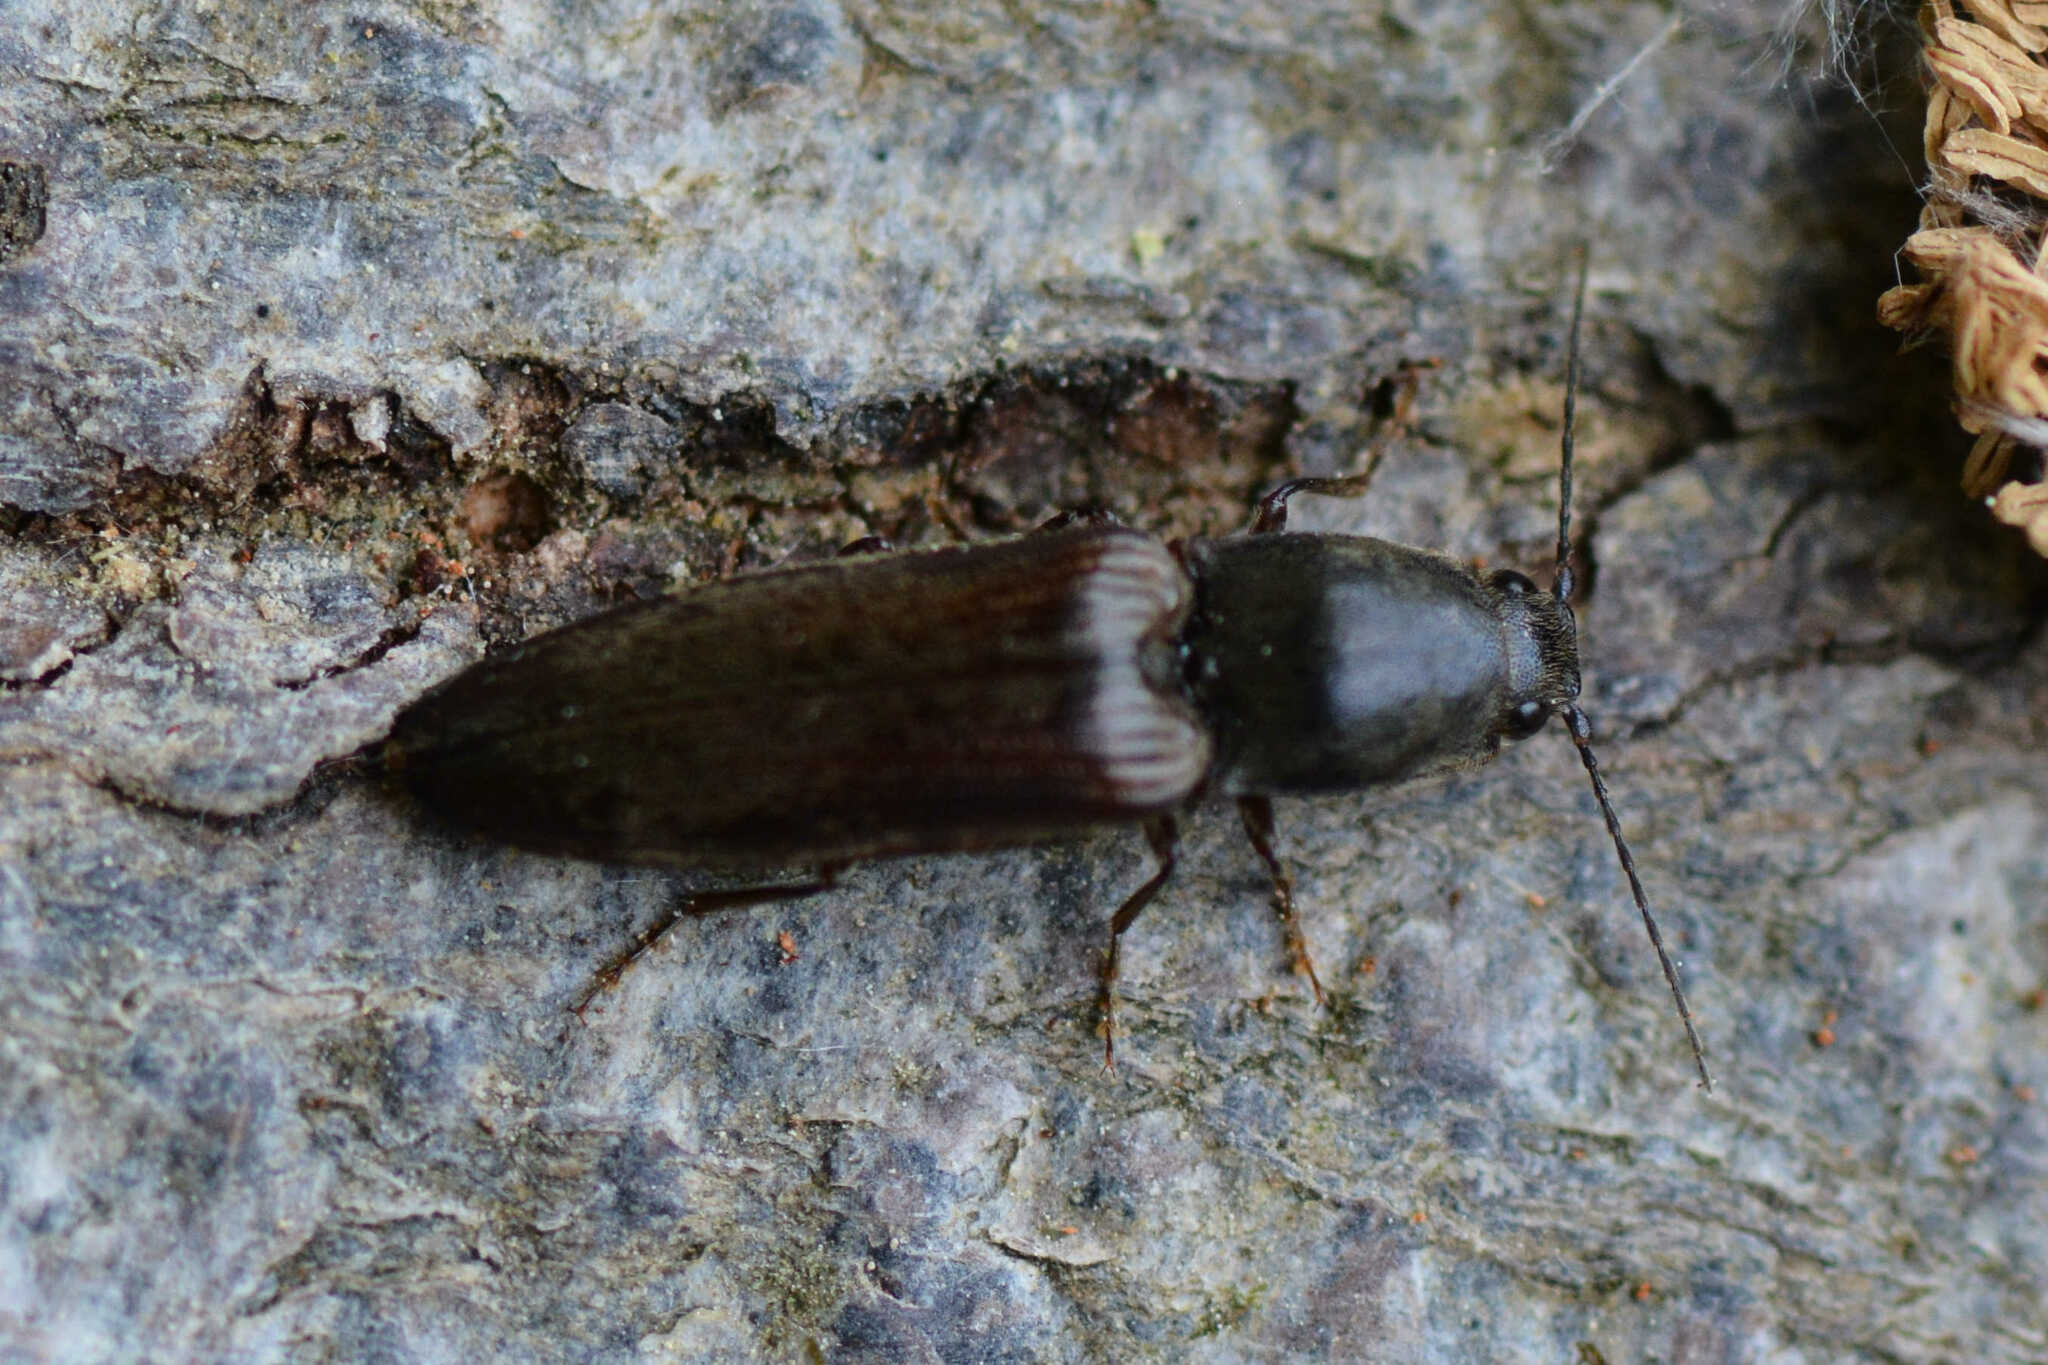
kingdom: Animalia
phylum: Arthropoda
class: Insecta
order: Coleoptera
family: Elateridae
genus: Athous
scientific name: Athous haemorrhoidalis
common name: Red-brown click beetle
